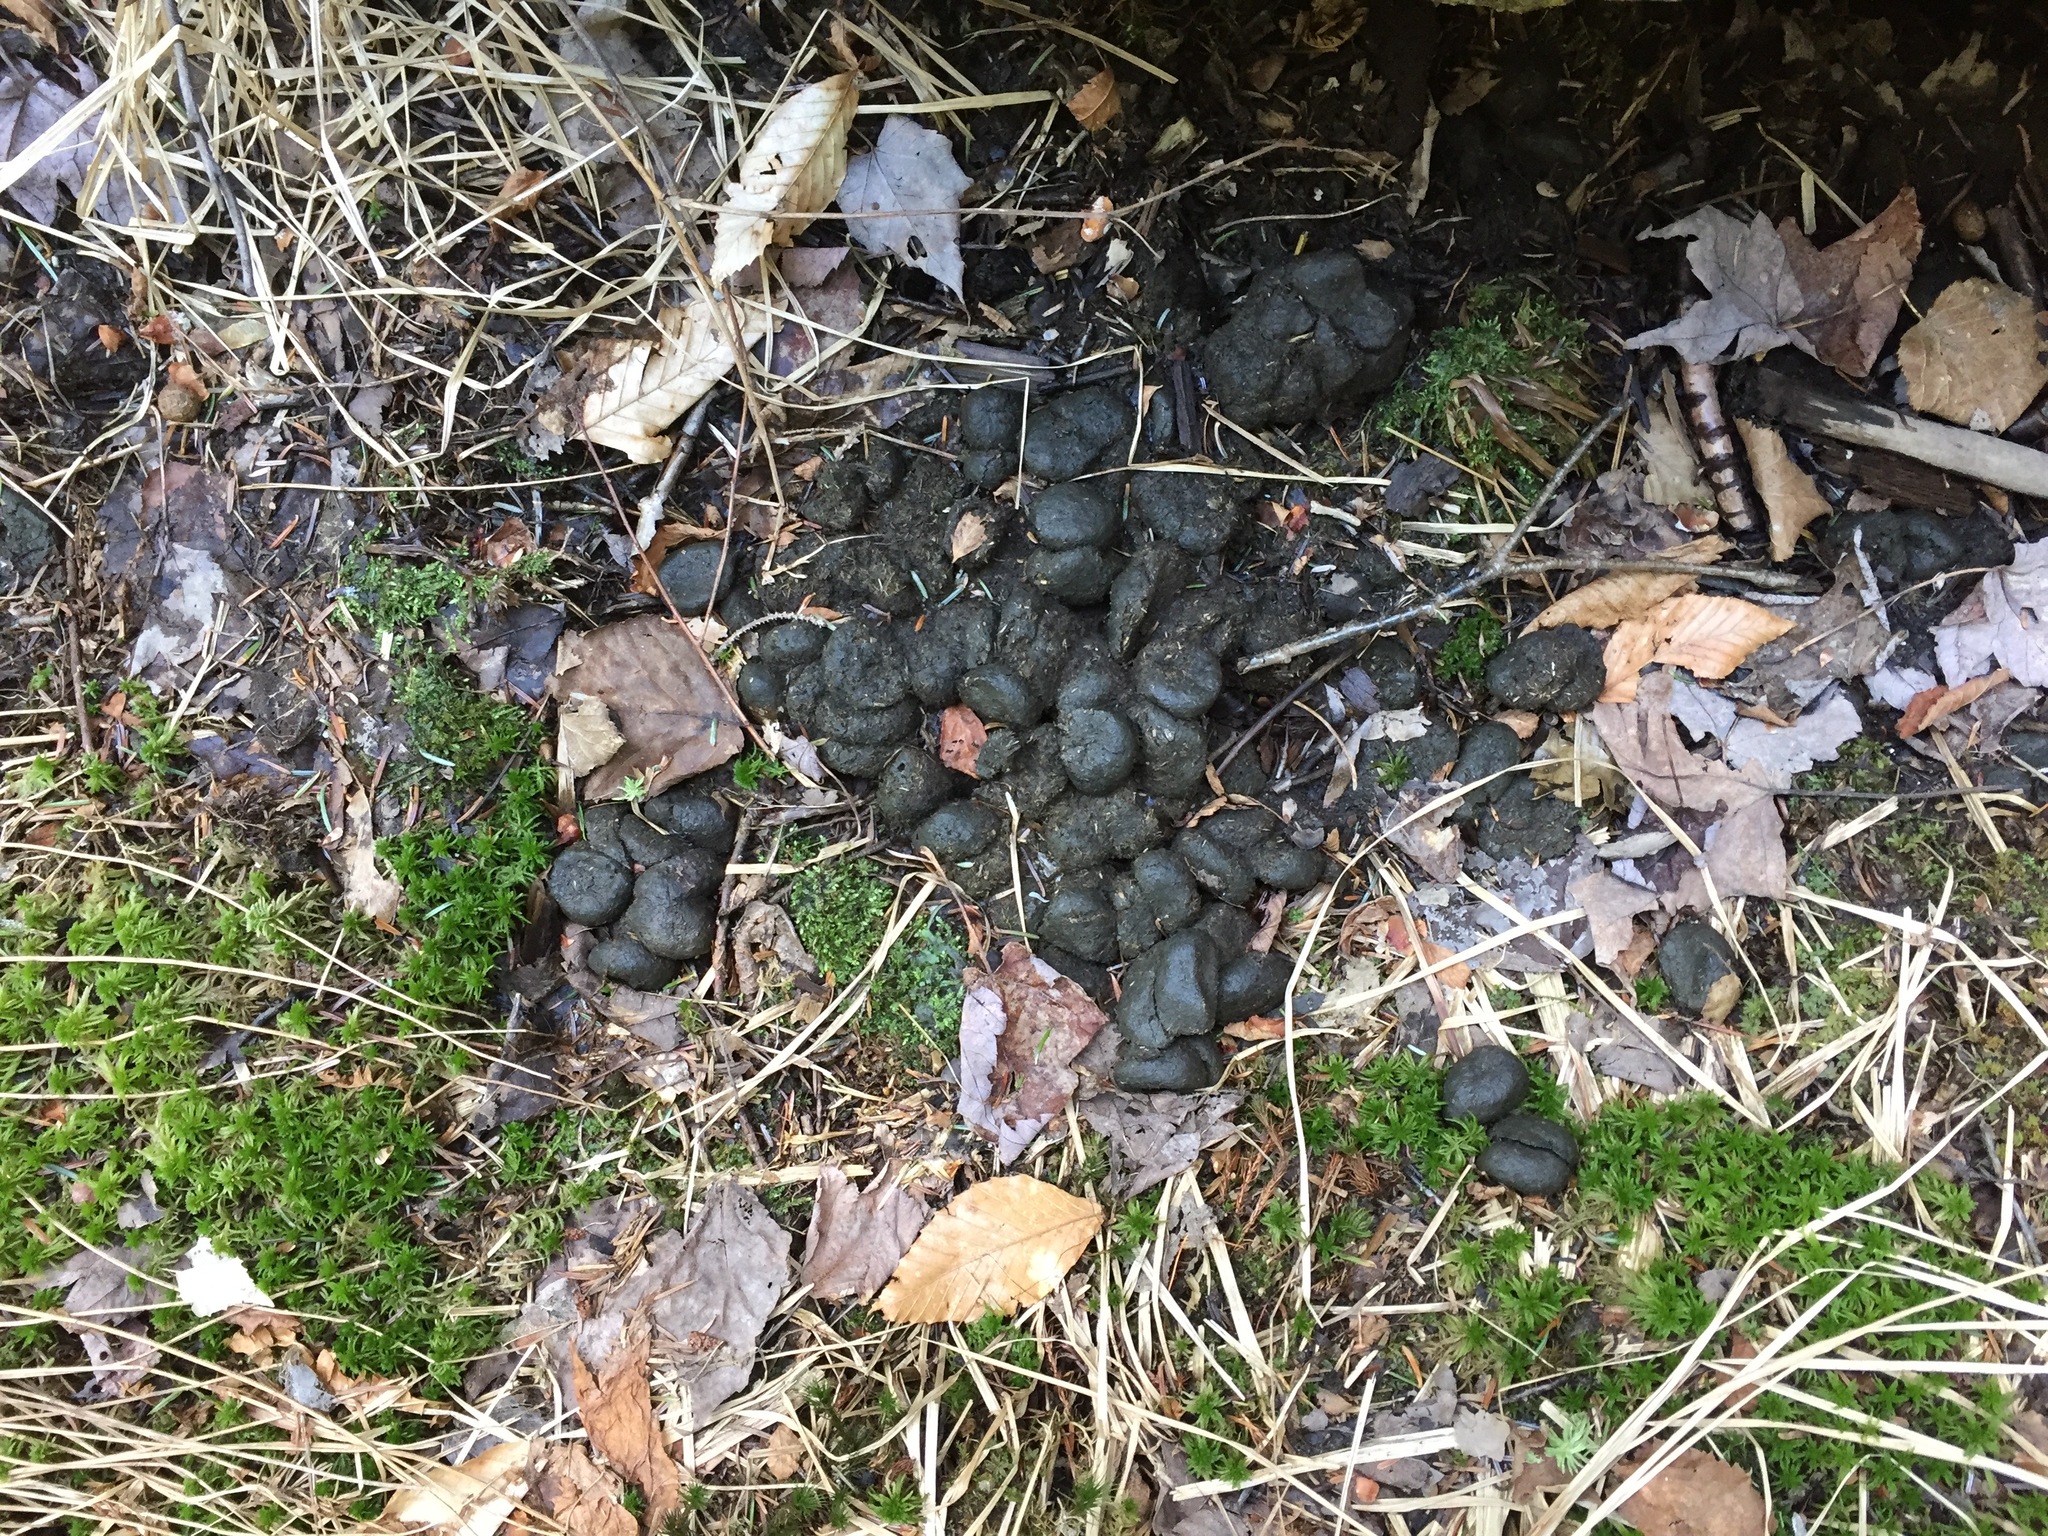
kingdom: Animalia
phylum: Chordata
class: Mammalia
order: Artiodactyla
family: Cervidae
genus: Alces
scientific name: Alces alces
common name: Moose
